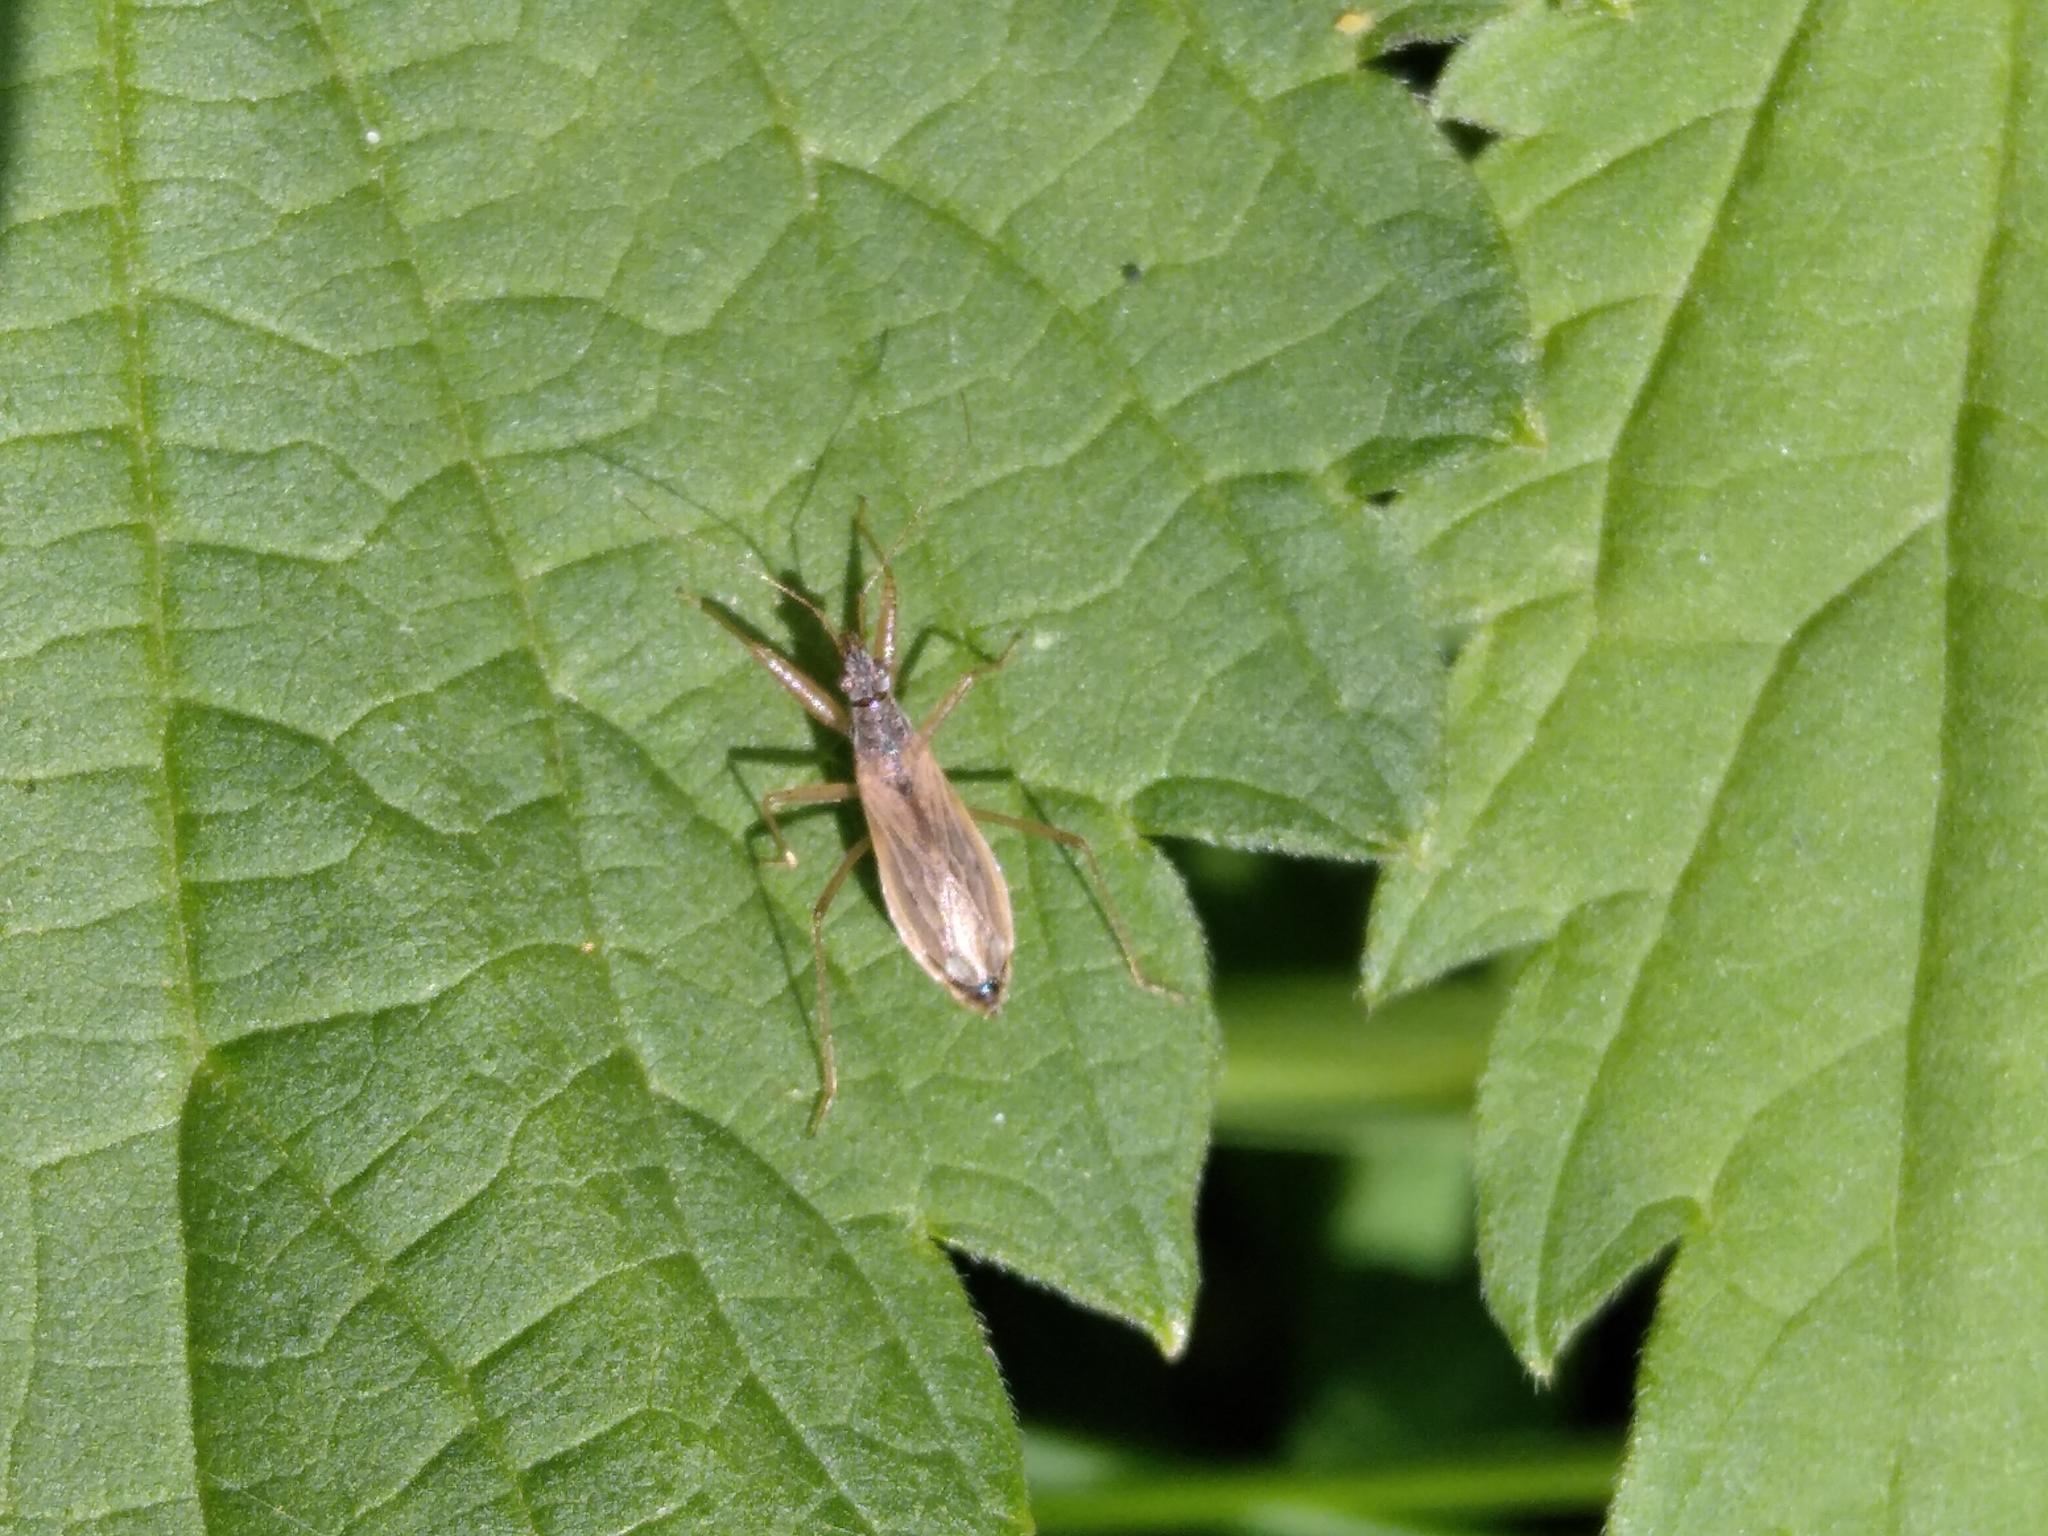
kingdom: Animalia
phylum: Arthropoda
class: Insecta
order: Hemiptera
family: Nabidae
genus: Nabis
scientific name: Nabis
